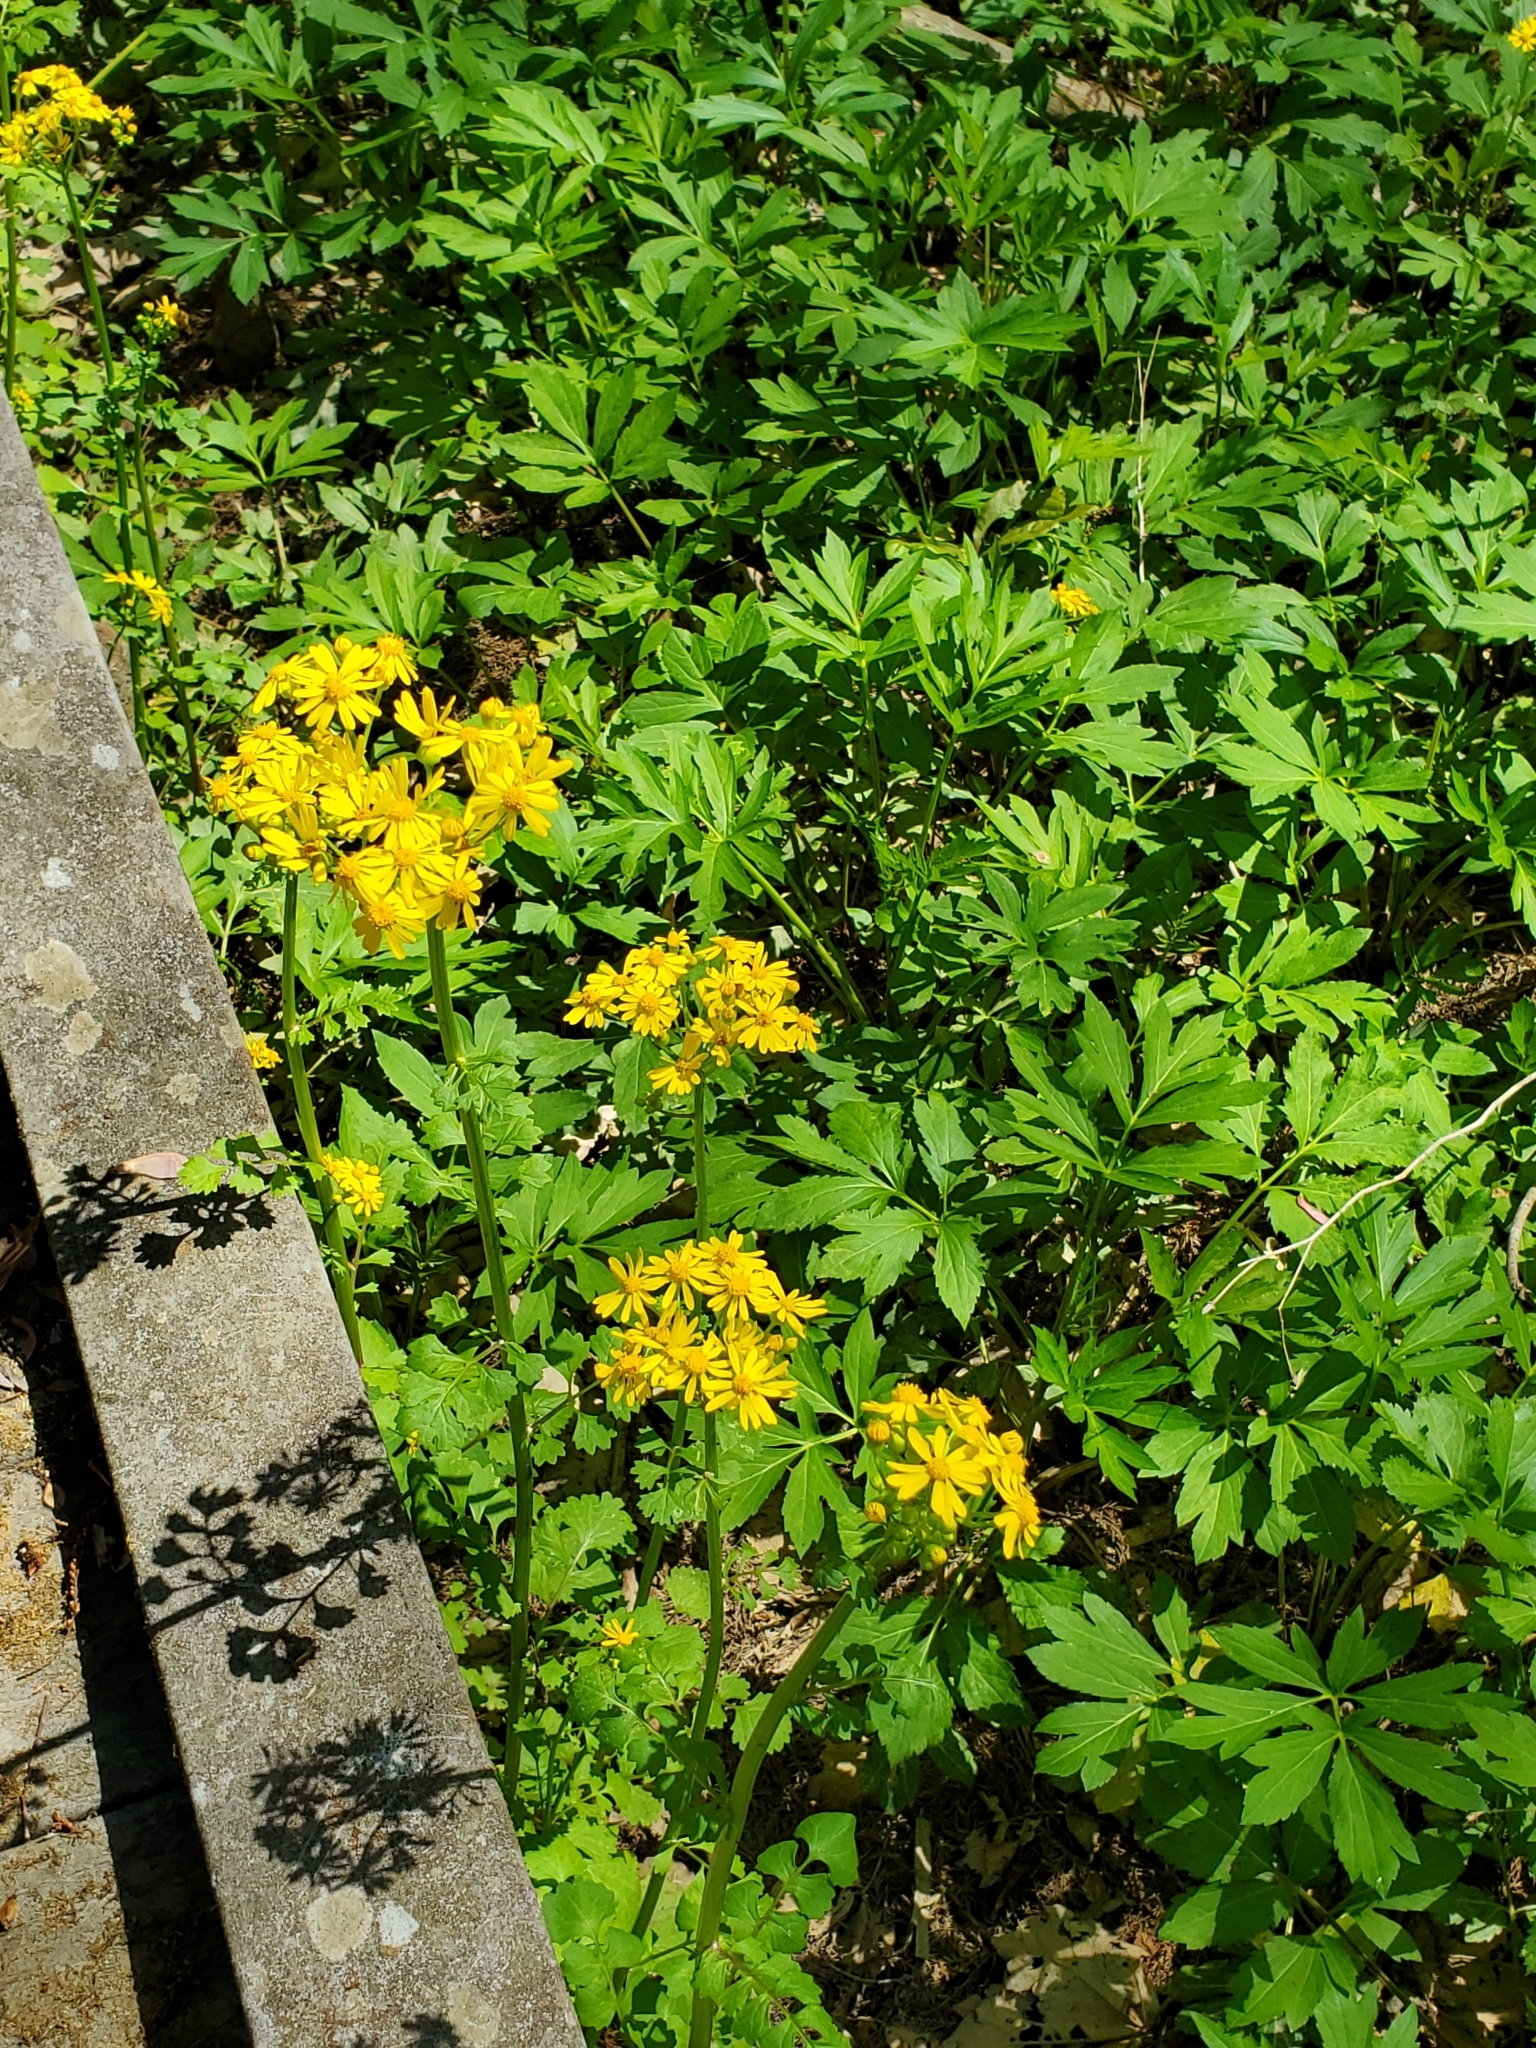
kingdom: Plantae
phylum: Tracheophyta
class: Magnoliopsida
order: Asterales
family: Asteraceae
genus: Packera
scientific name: Packera glabella
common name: Butterweed
